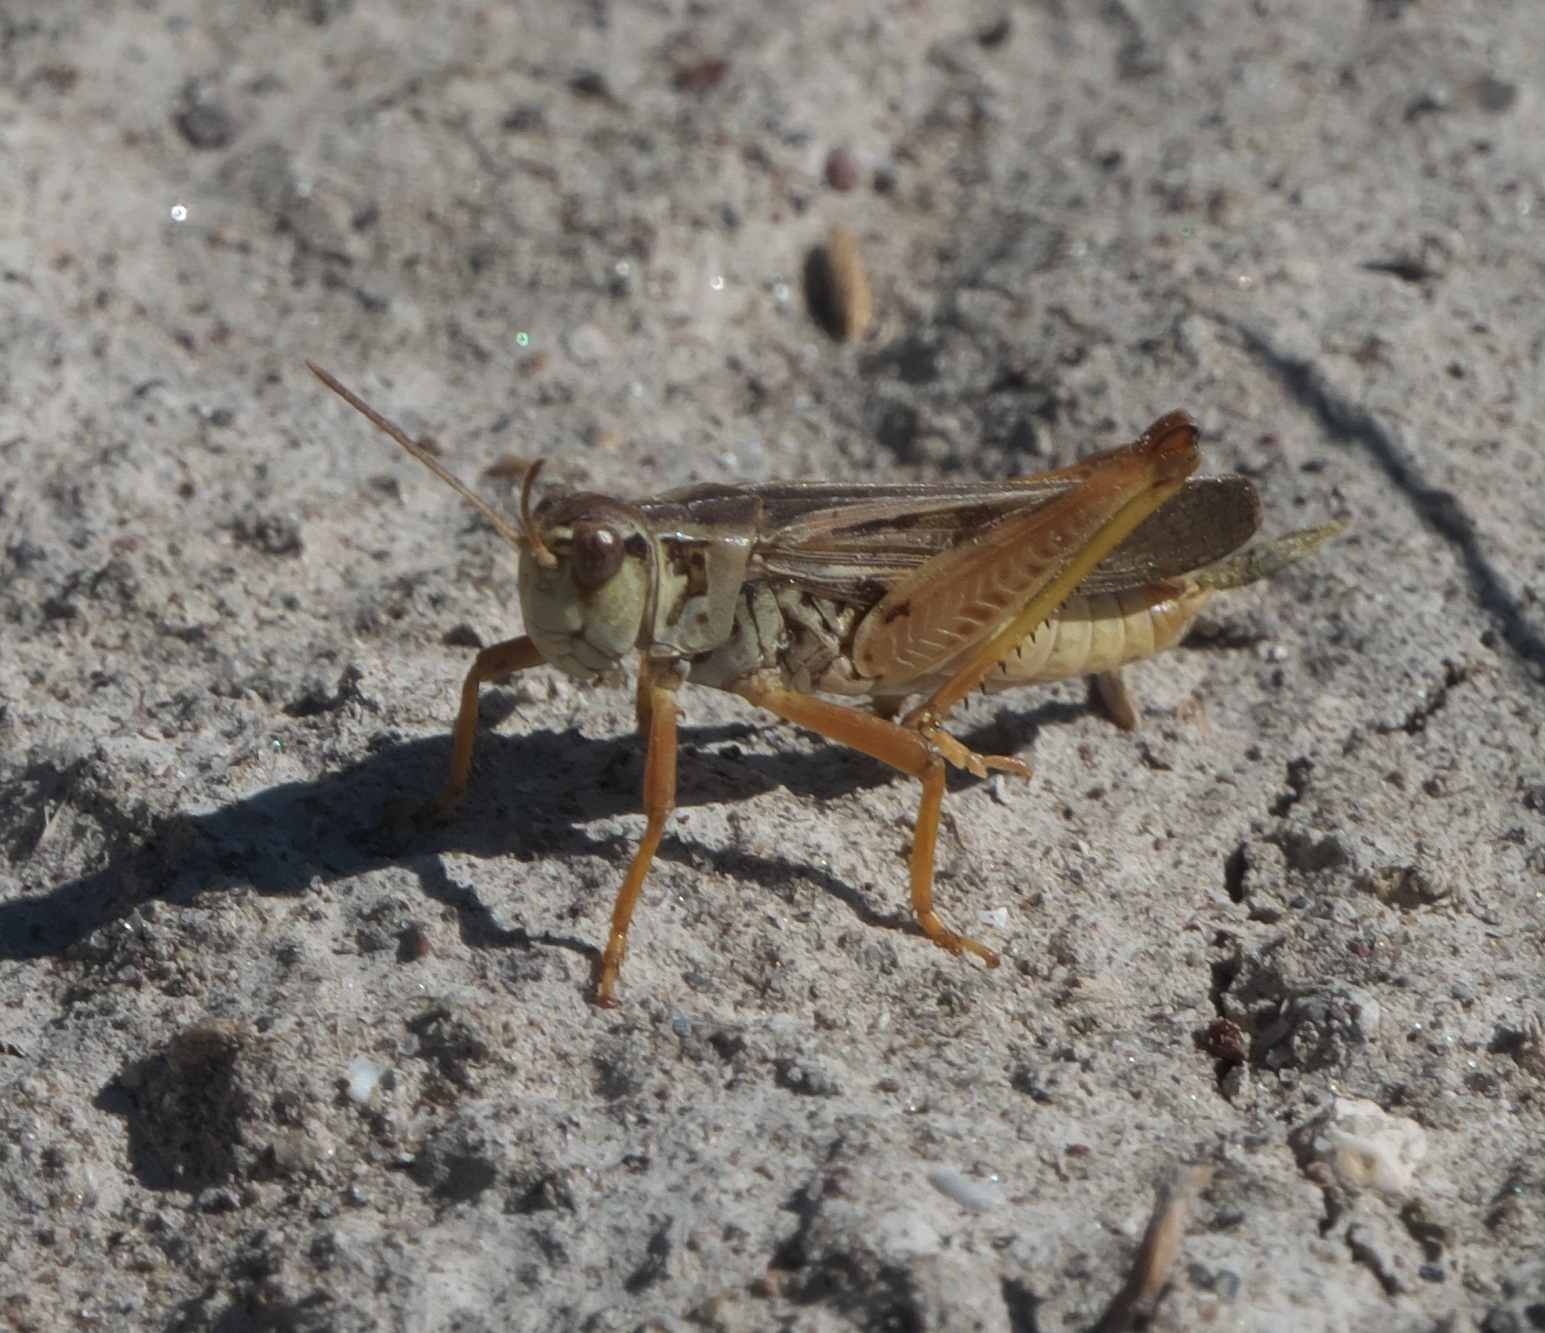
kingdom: Animalia
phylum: Arthropoda
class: Insecta
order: Orthoptera
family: Acrididae
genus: Camnula
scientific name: Camnula pellucida
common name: Clear-winged grasshopper
